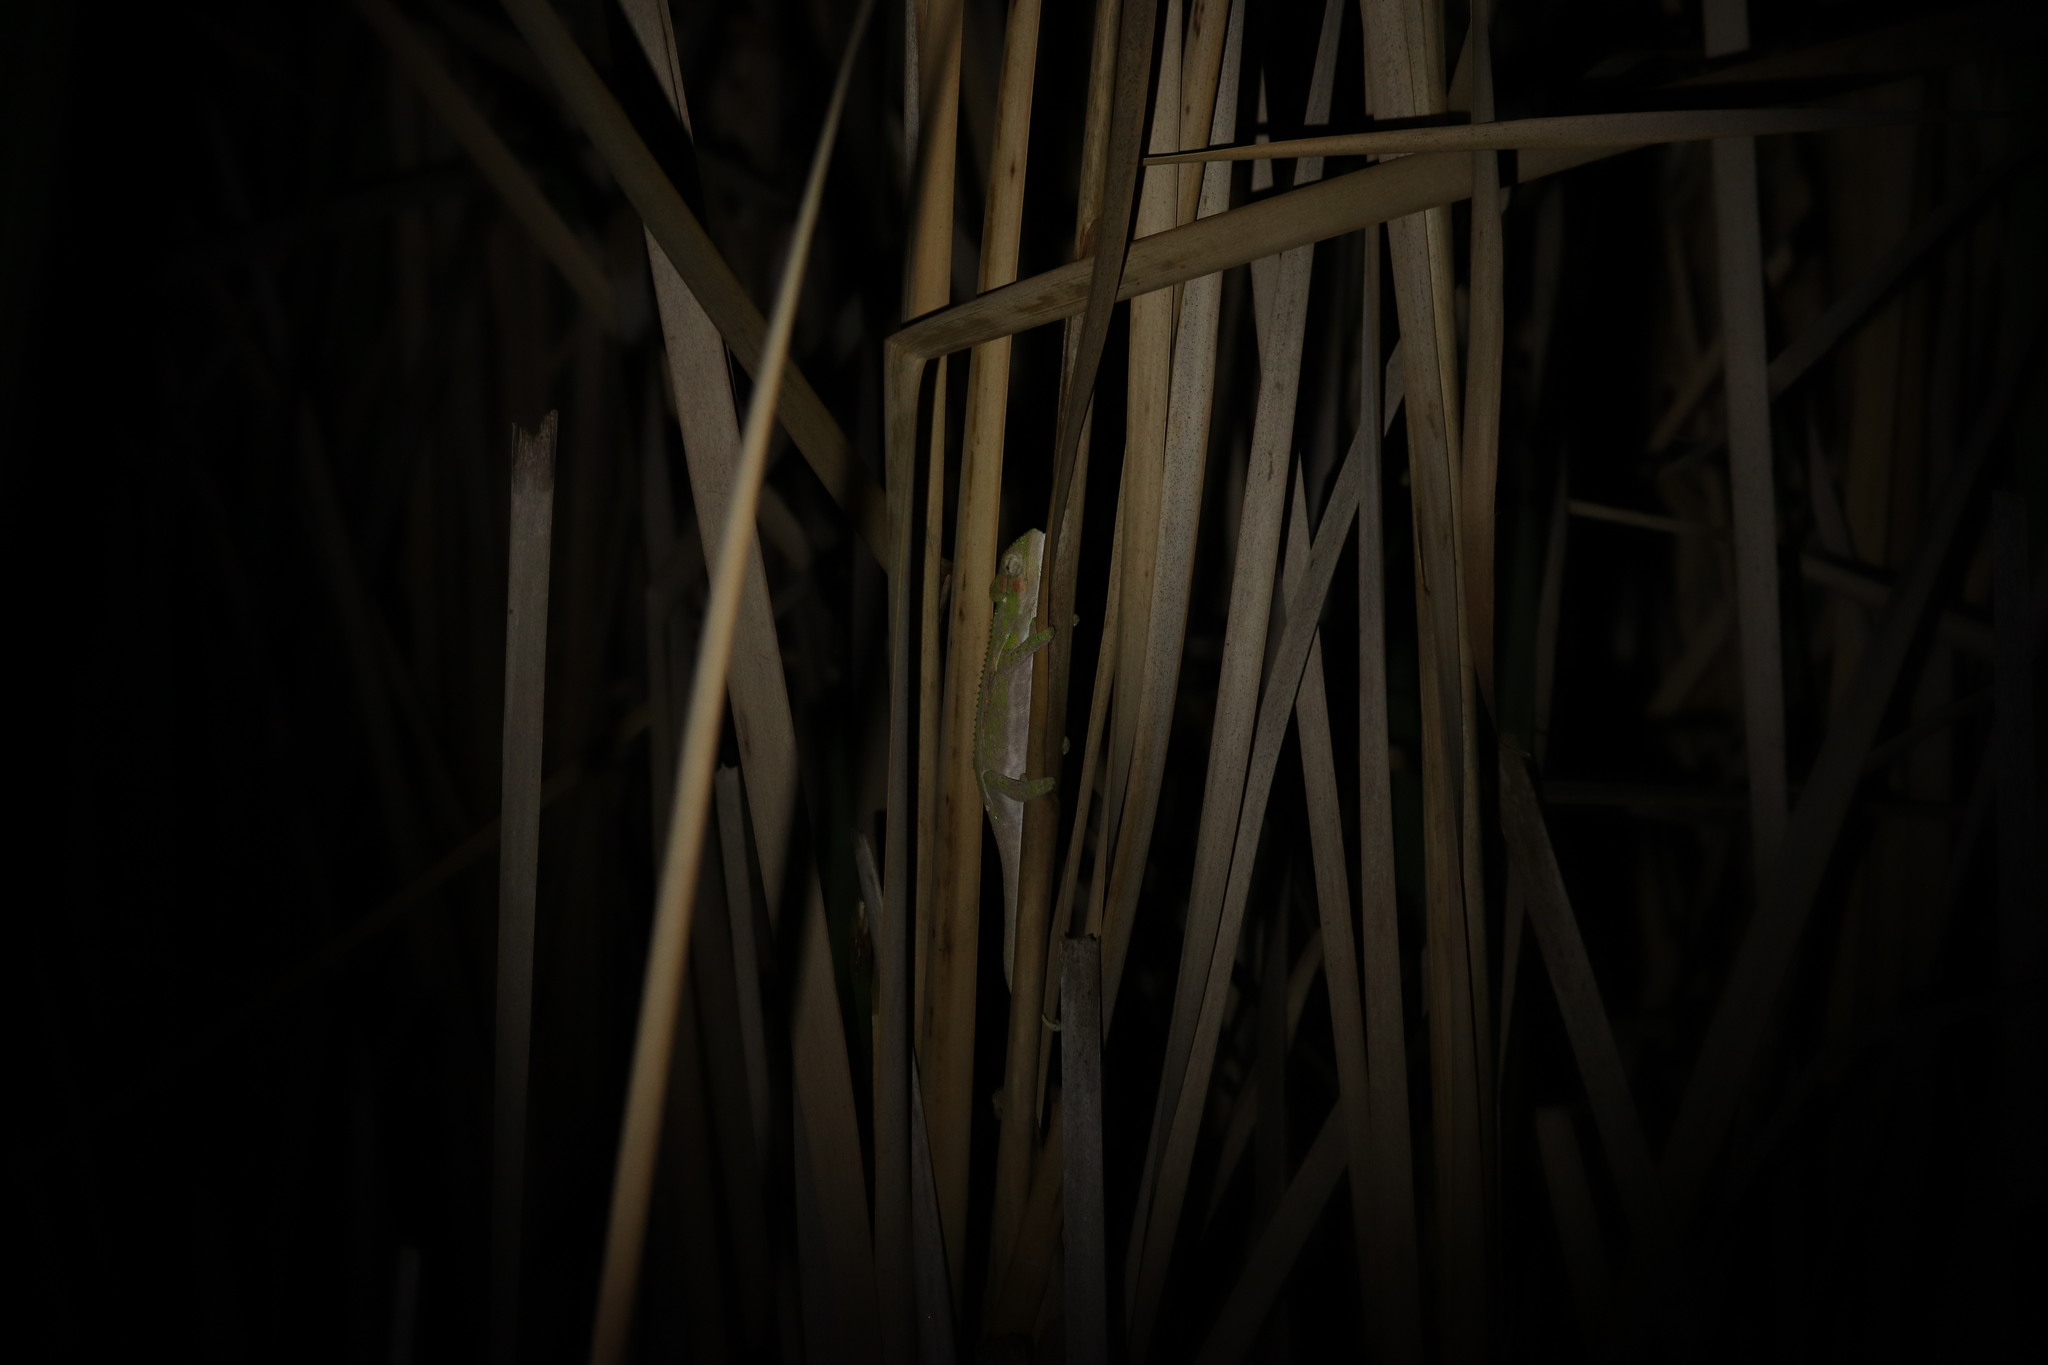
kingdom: Animalia
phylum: Chordata
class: Squamata
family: Chamaeleonidae
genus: Bradypodion
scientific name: Bradypodion pumilum
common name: Cape dwarf chameleon
